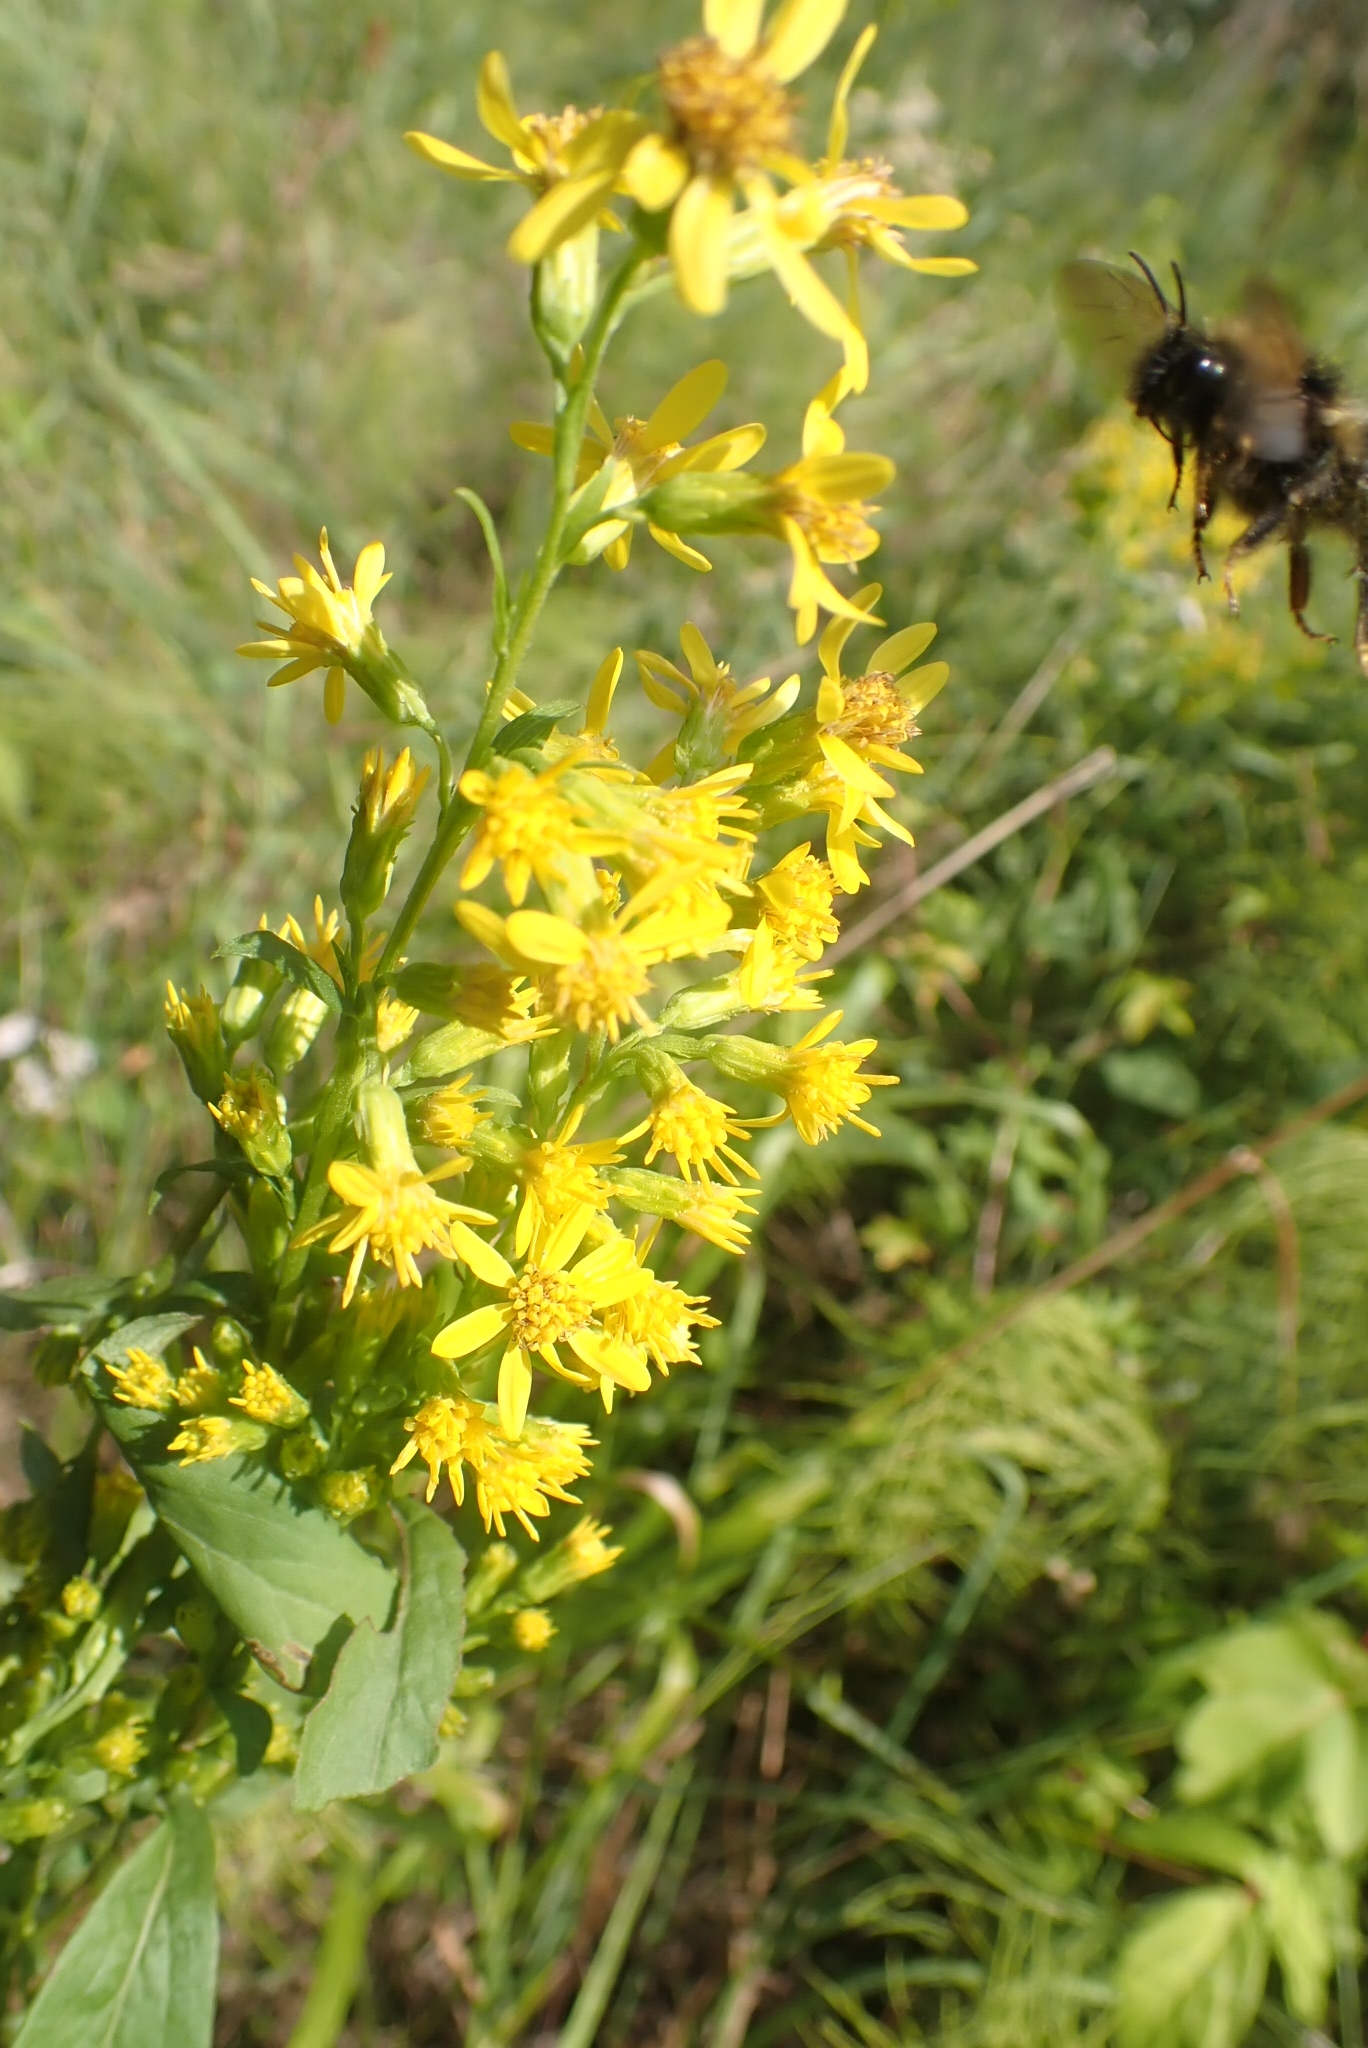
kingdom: Plantae
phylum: Tracheophyta
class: Magnoliopsida
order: Asterales
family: Asteraceae
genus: Solidago
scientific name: Solidago virgaurea
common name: Goldenrod
